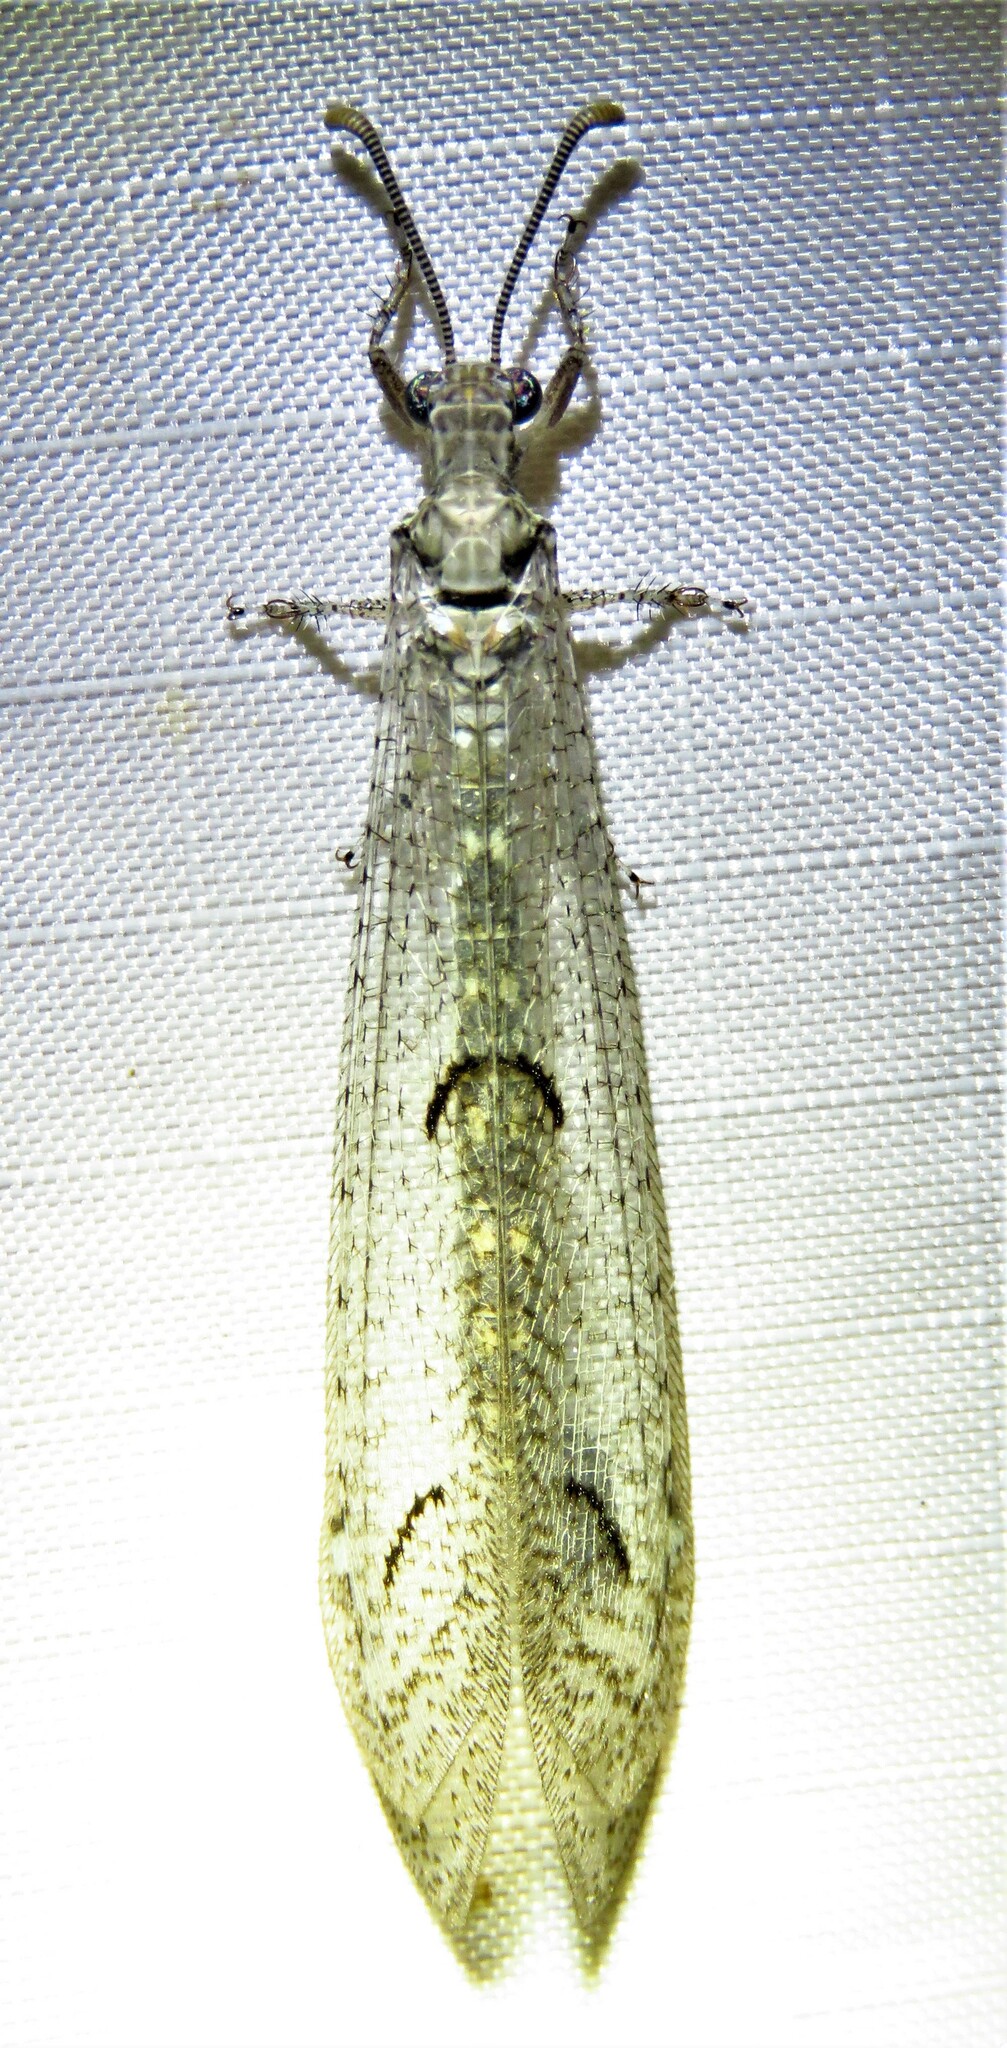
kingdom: Animalia
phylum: Arthropoda
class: Insecta
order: Neuroptera
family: Myrmeleontidae
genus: Euptilon
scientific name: Euptilon ornatum
